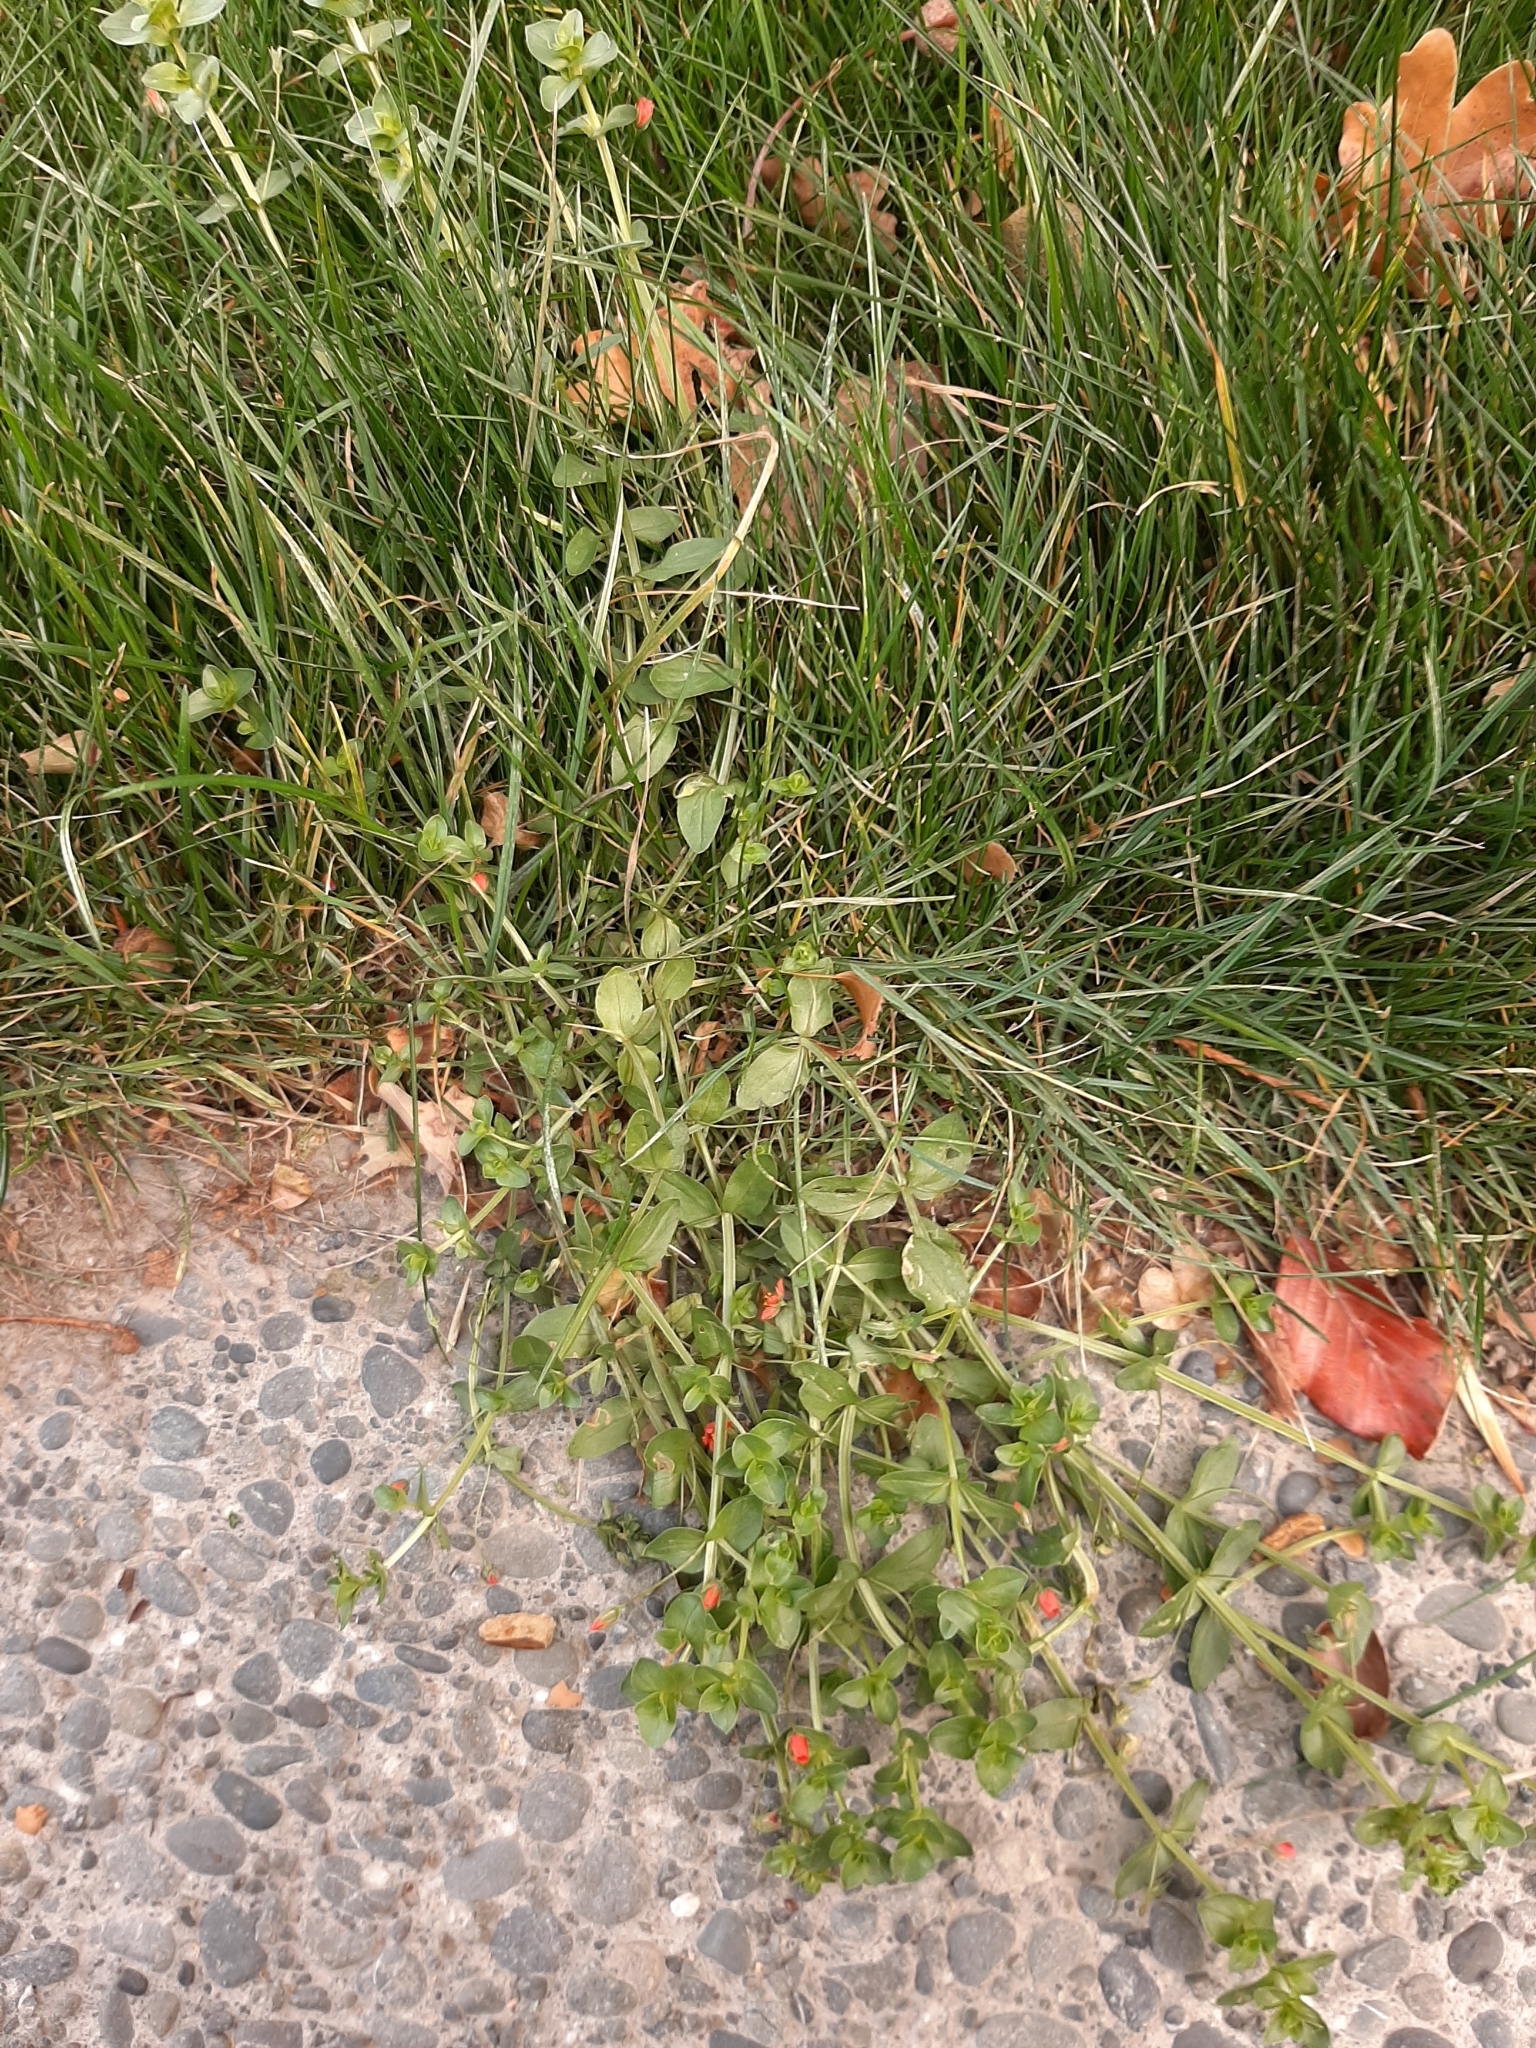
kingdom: Plantae
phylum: Tracheophyta
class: Magnoliopsida
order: Ericales
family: Primulaceae
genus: Lysimachia
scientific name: Lysimachia arvensis
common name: Scarlet pimpernel
